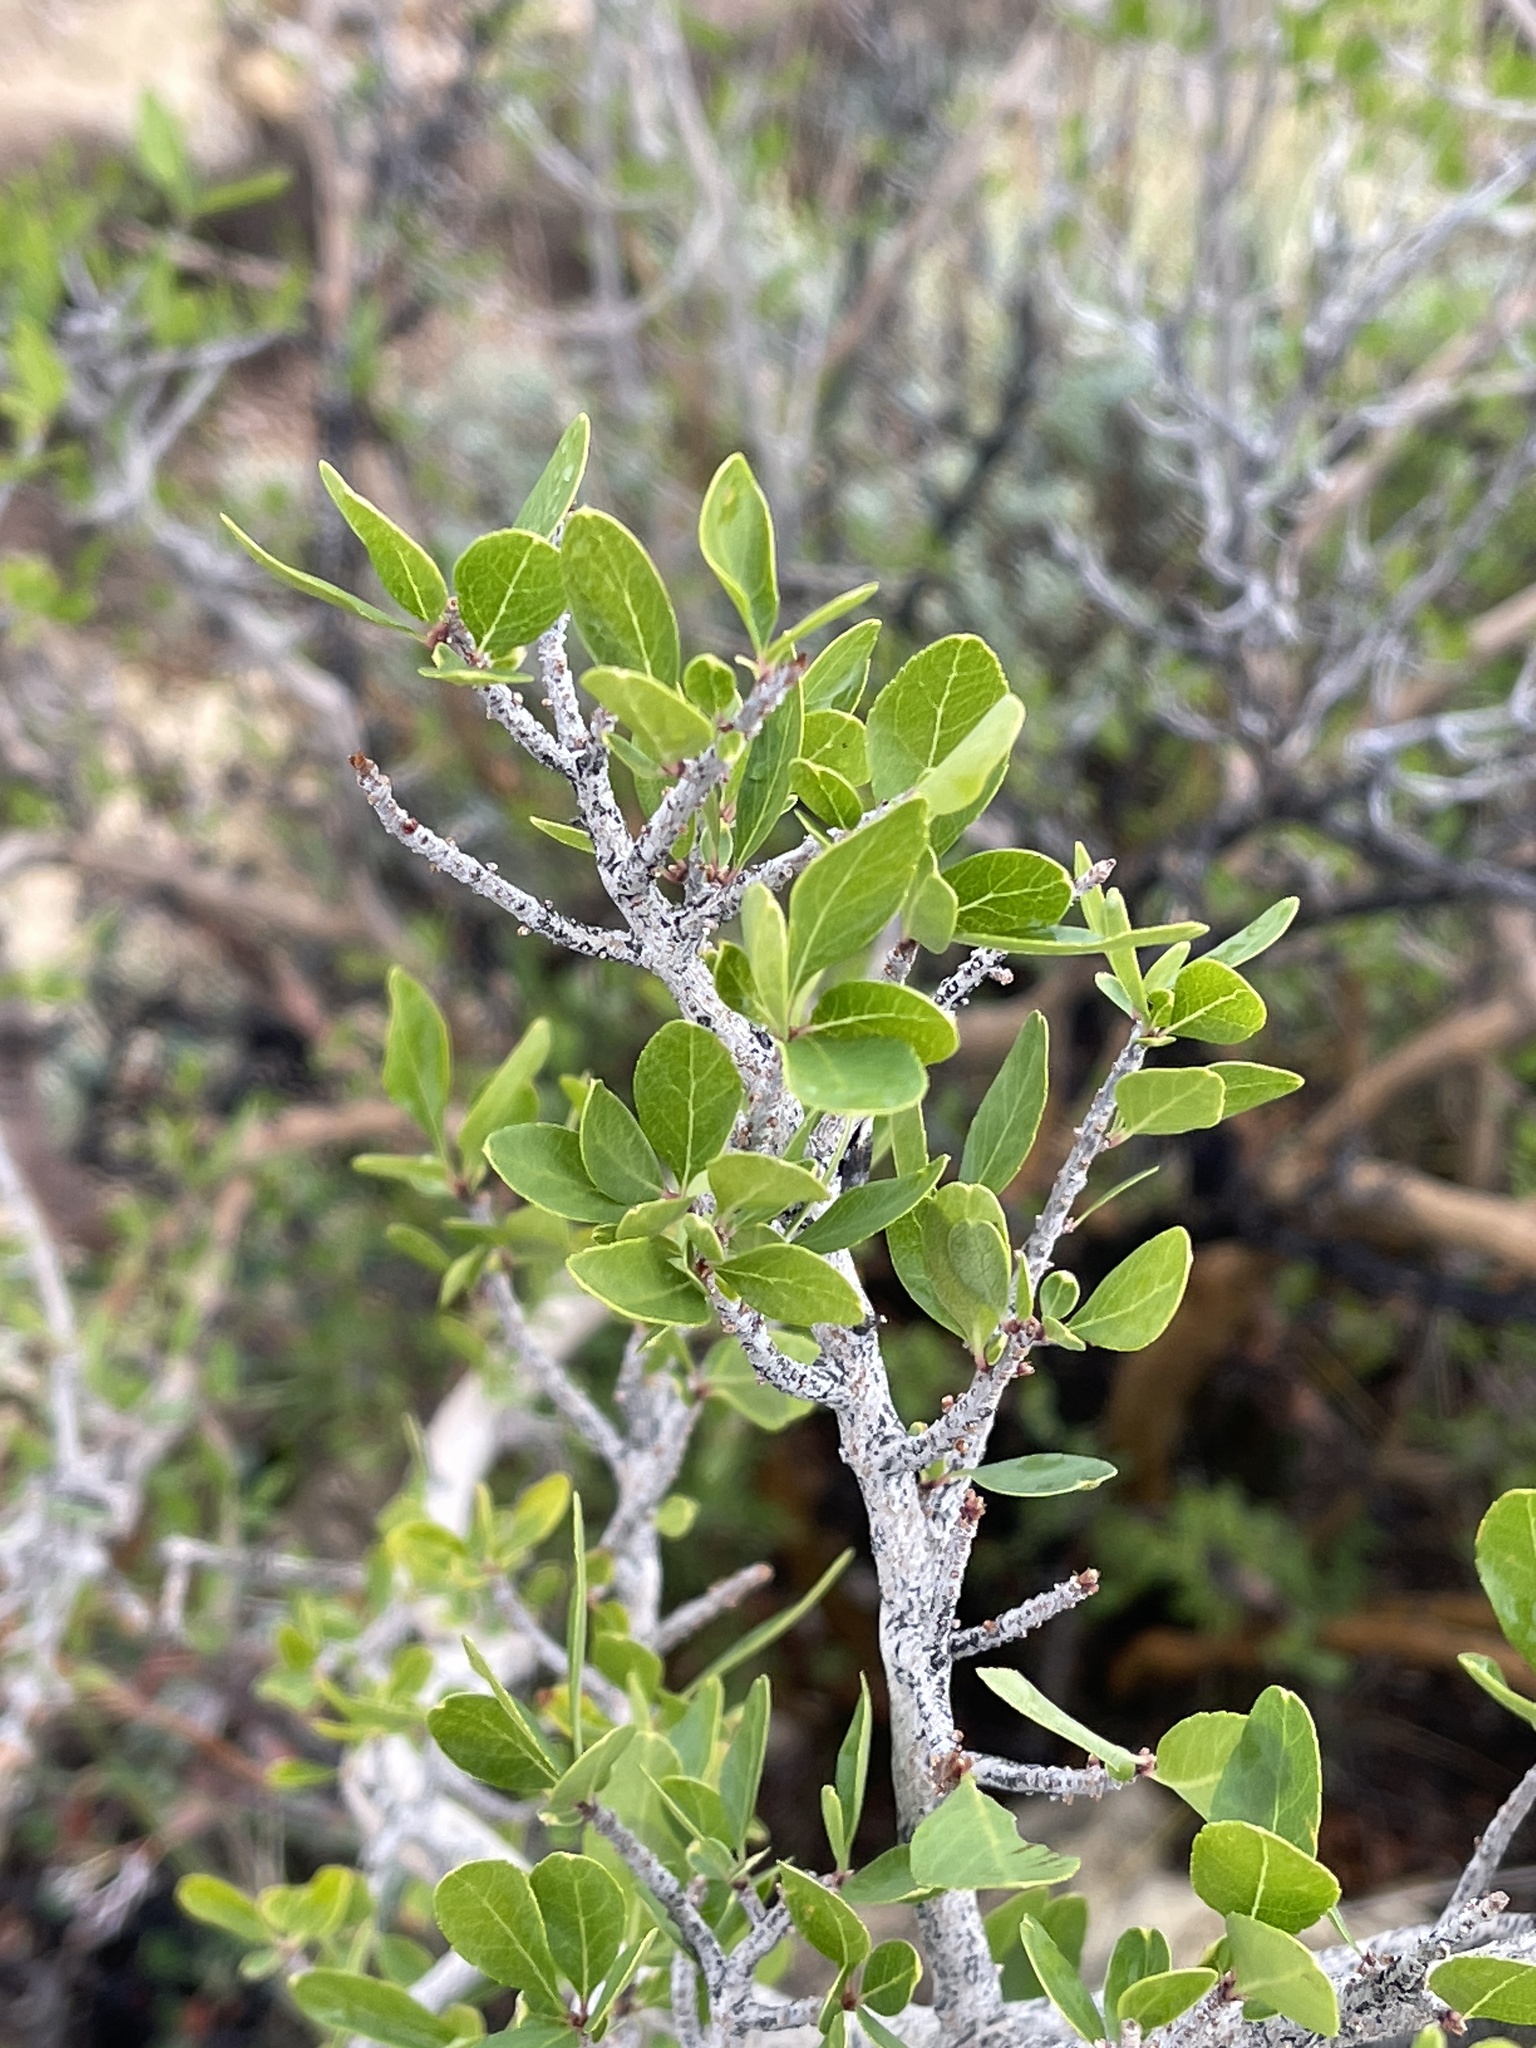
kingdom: Plantae
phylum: Tracheophyta
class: Magnoliopsida
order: Lamiales
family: Oleaceae
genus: Forestiera
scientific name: Forestiera pubescens
